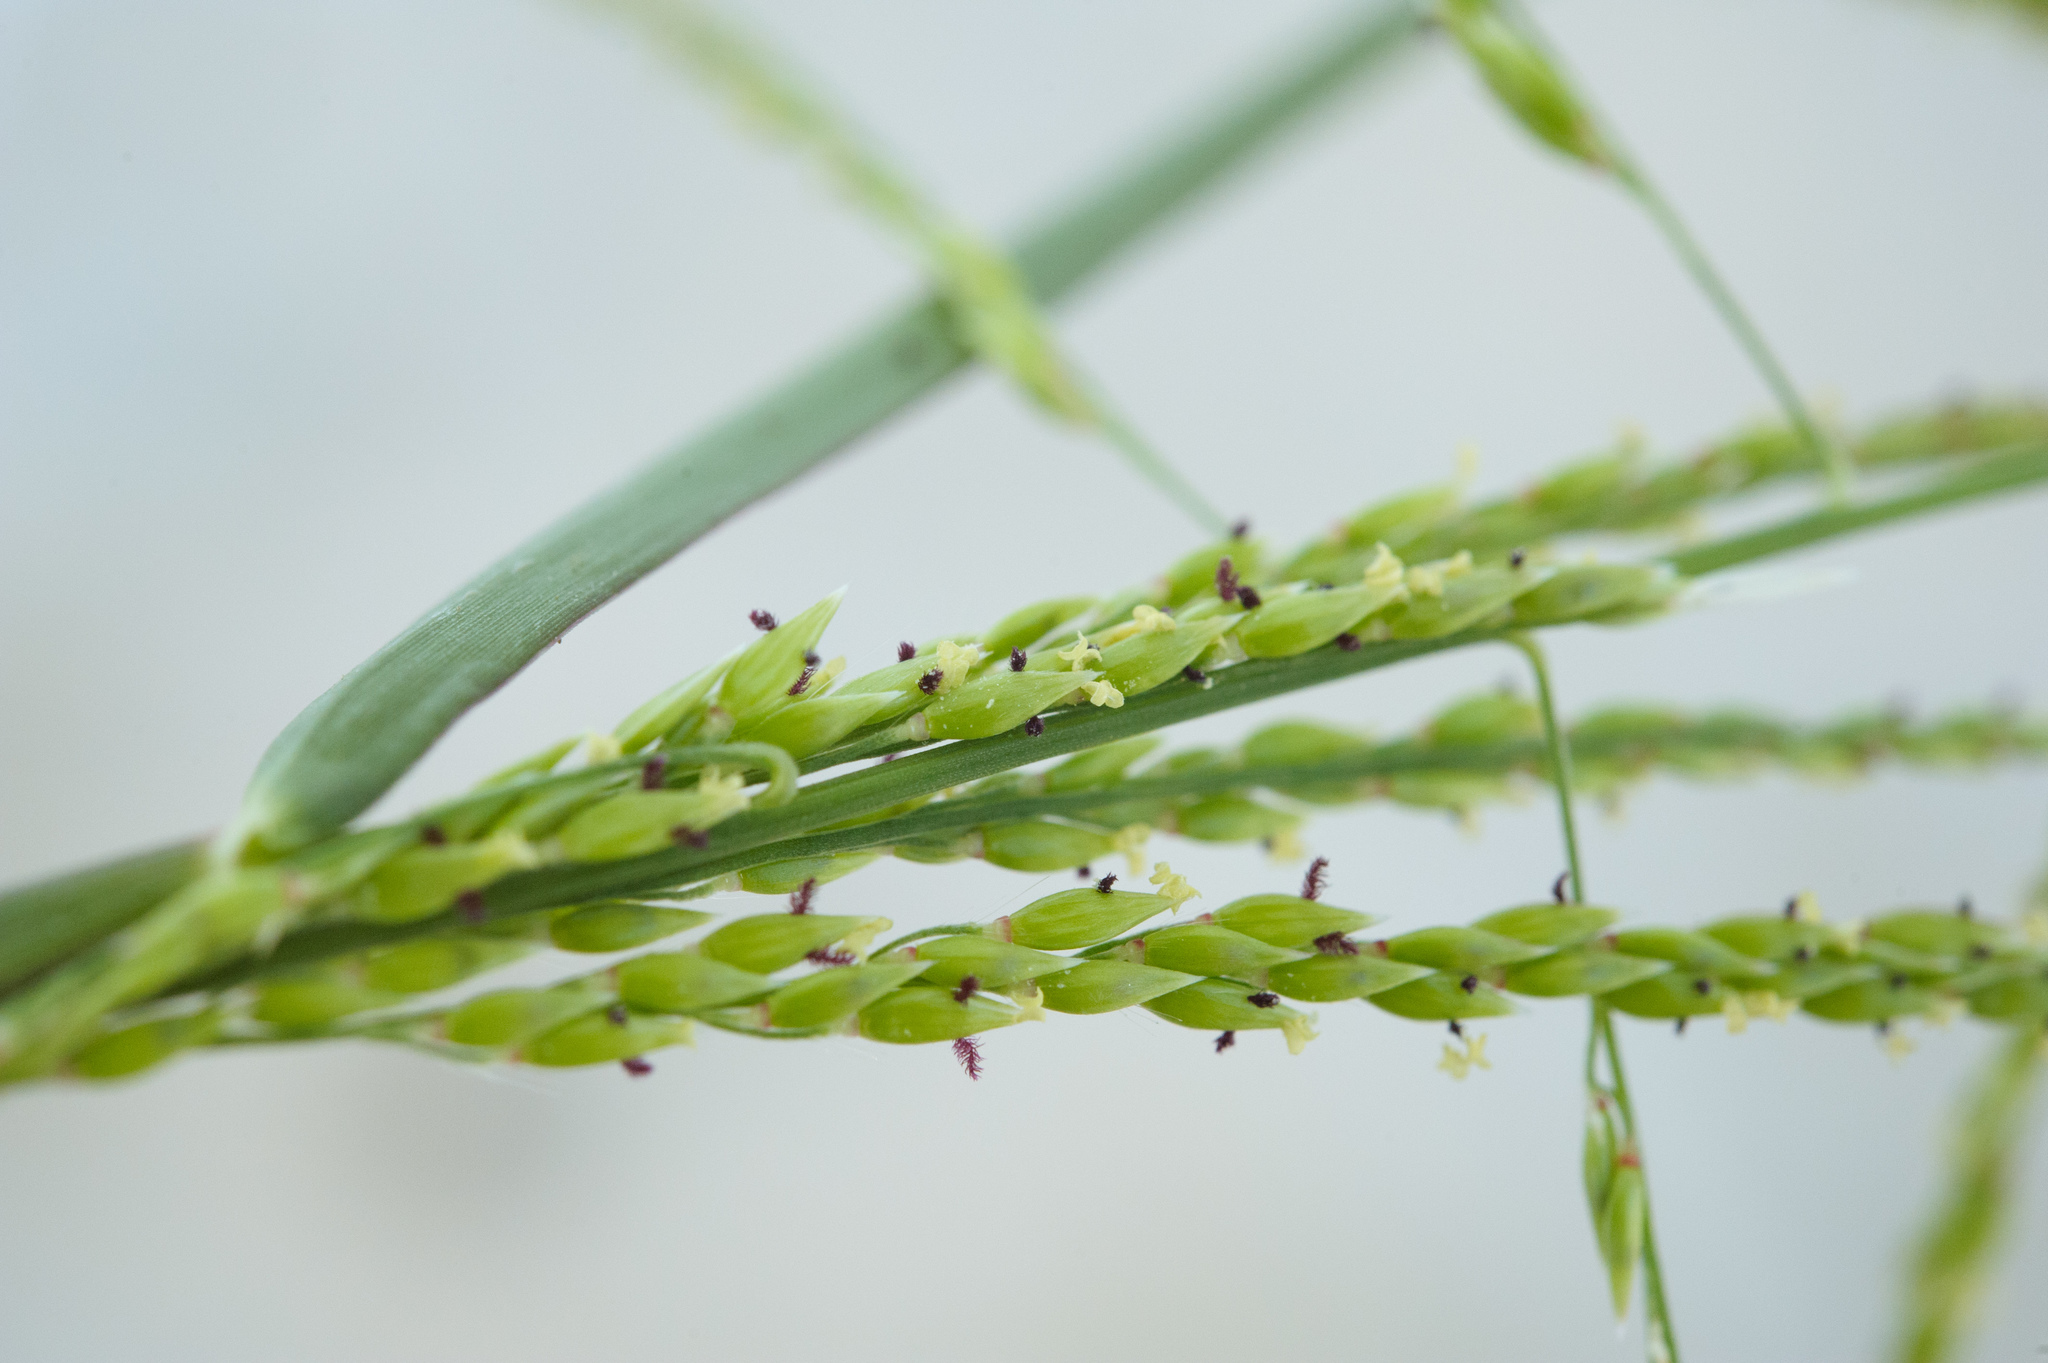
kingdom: Plantae
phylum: Tracheophyta
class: Liliopsida
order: Poales
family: Poaceae
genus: Eriochloa
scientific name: Eriochloa procera
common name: Spring grass
